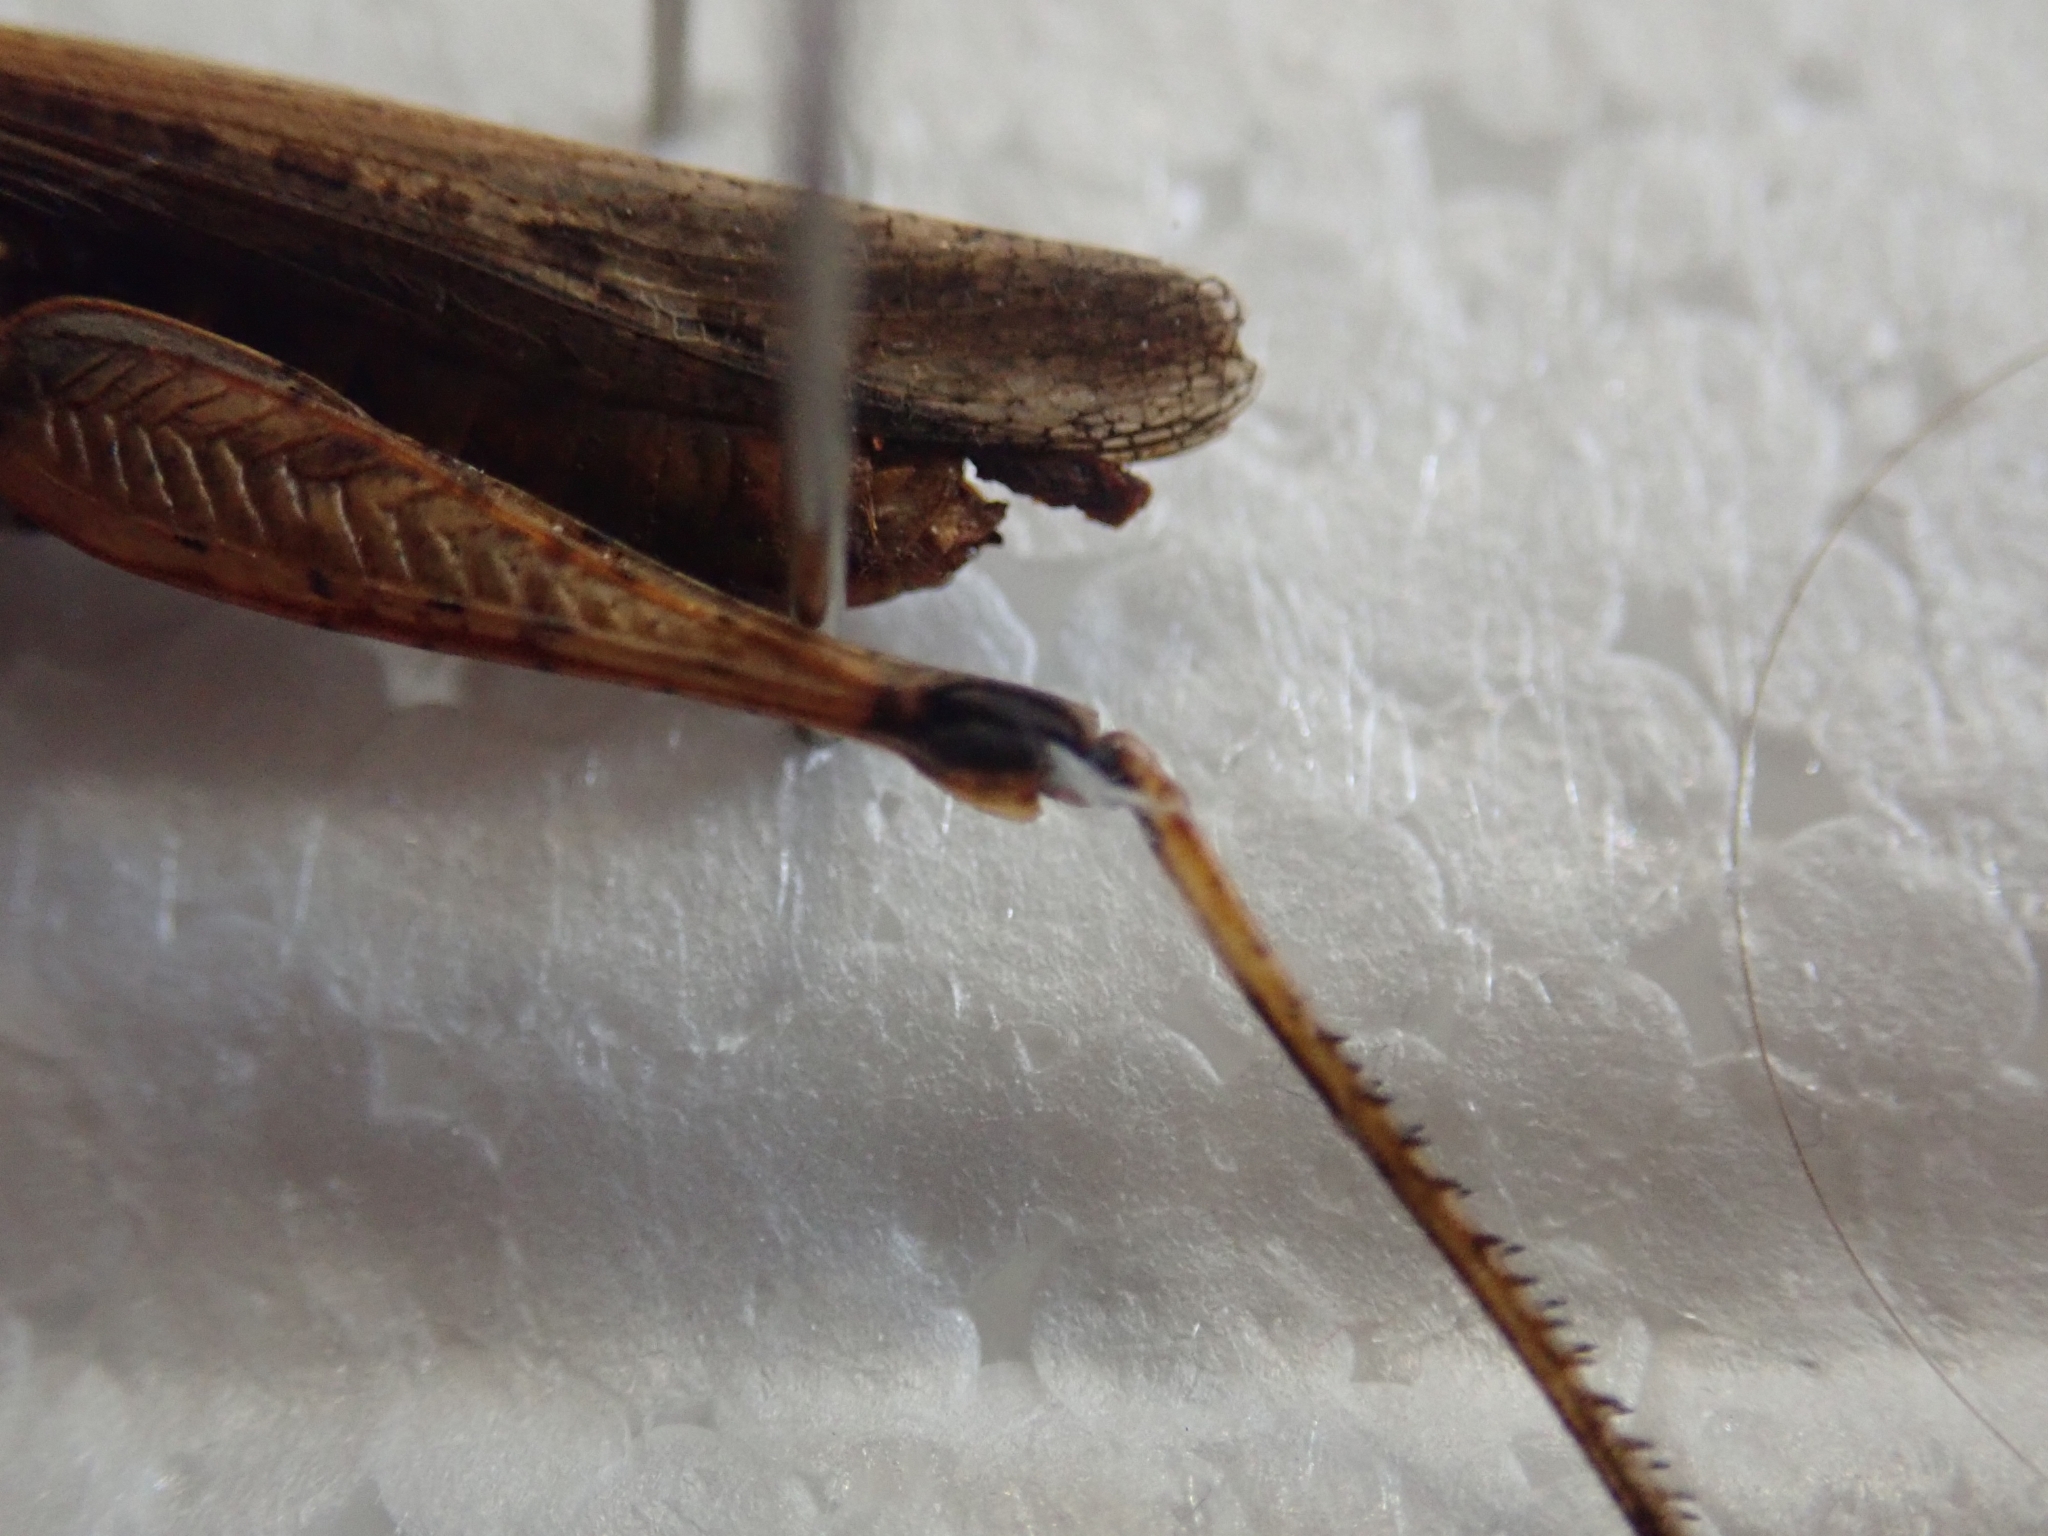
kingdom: Animalia
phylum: Arthropoda
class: Insecta
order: Orthoptera
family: Acrididae
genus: Glyptobothrus
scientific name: Glyptobothrus
